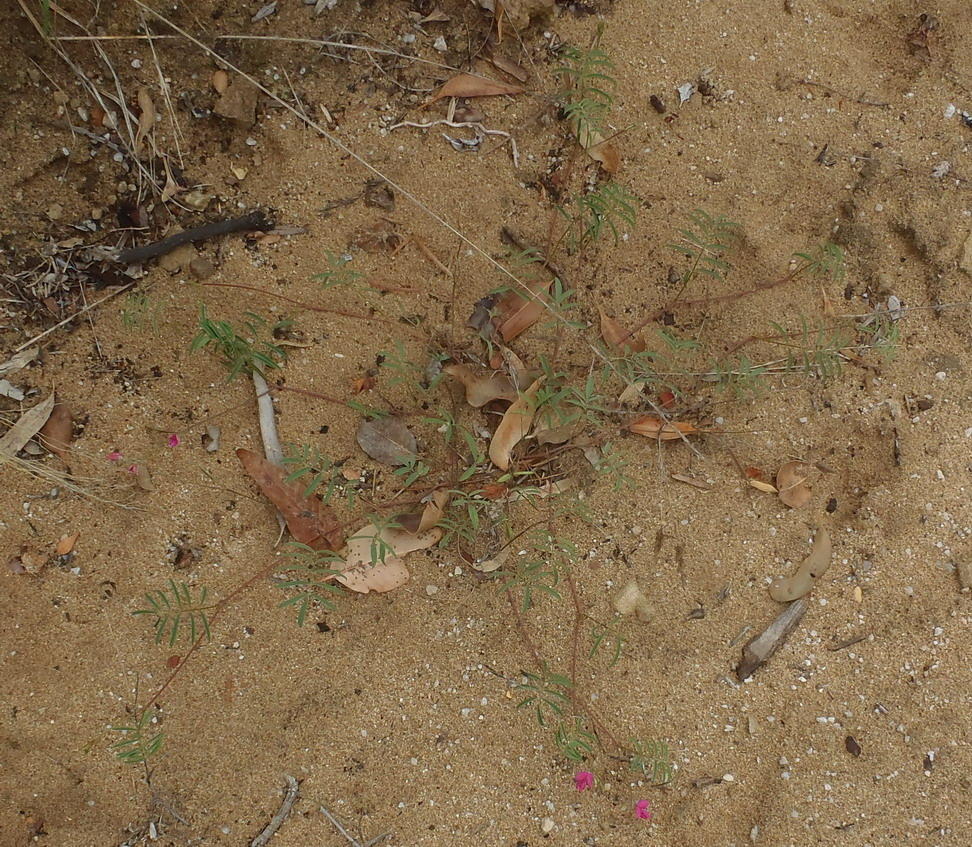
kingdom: Plantae
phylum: Tracheophyta
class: Magnoliopsida
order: Fabales
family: Fabaceae
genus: Tephrosia
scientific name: Tephrosia capensis
